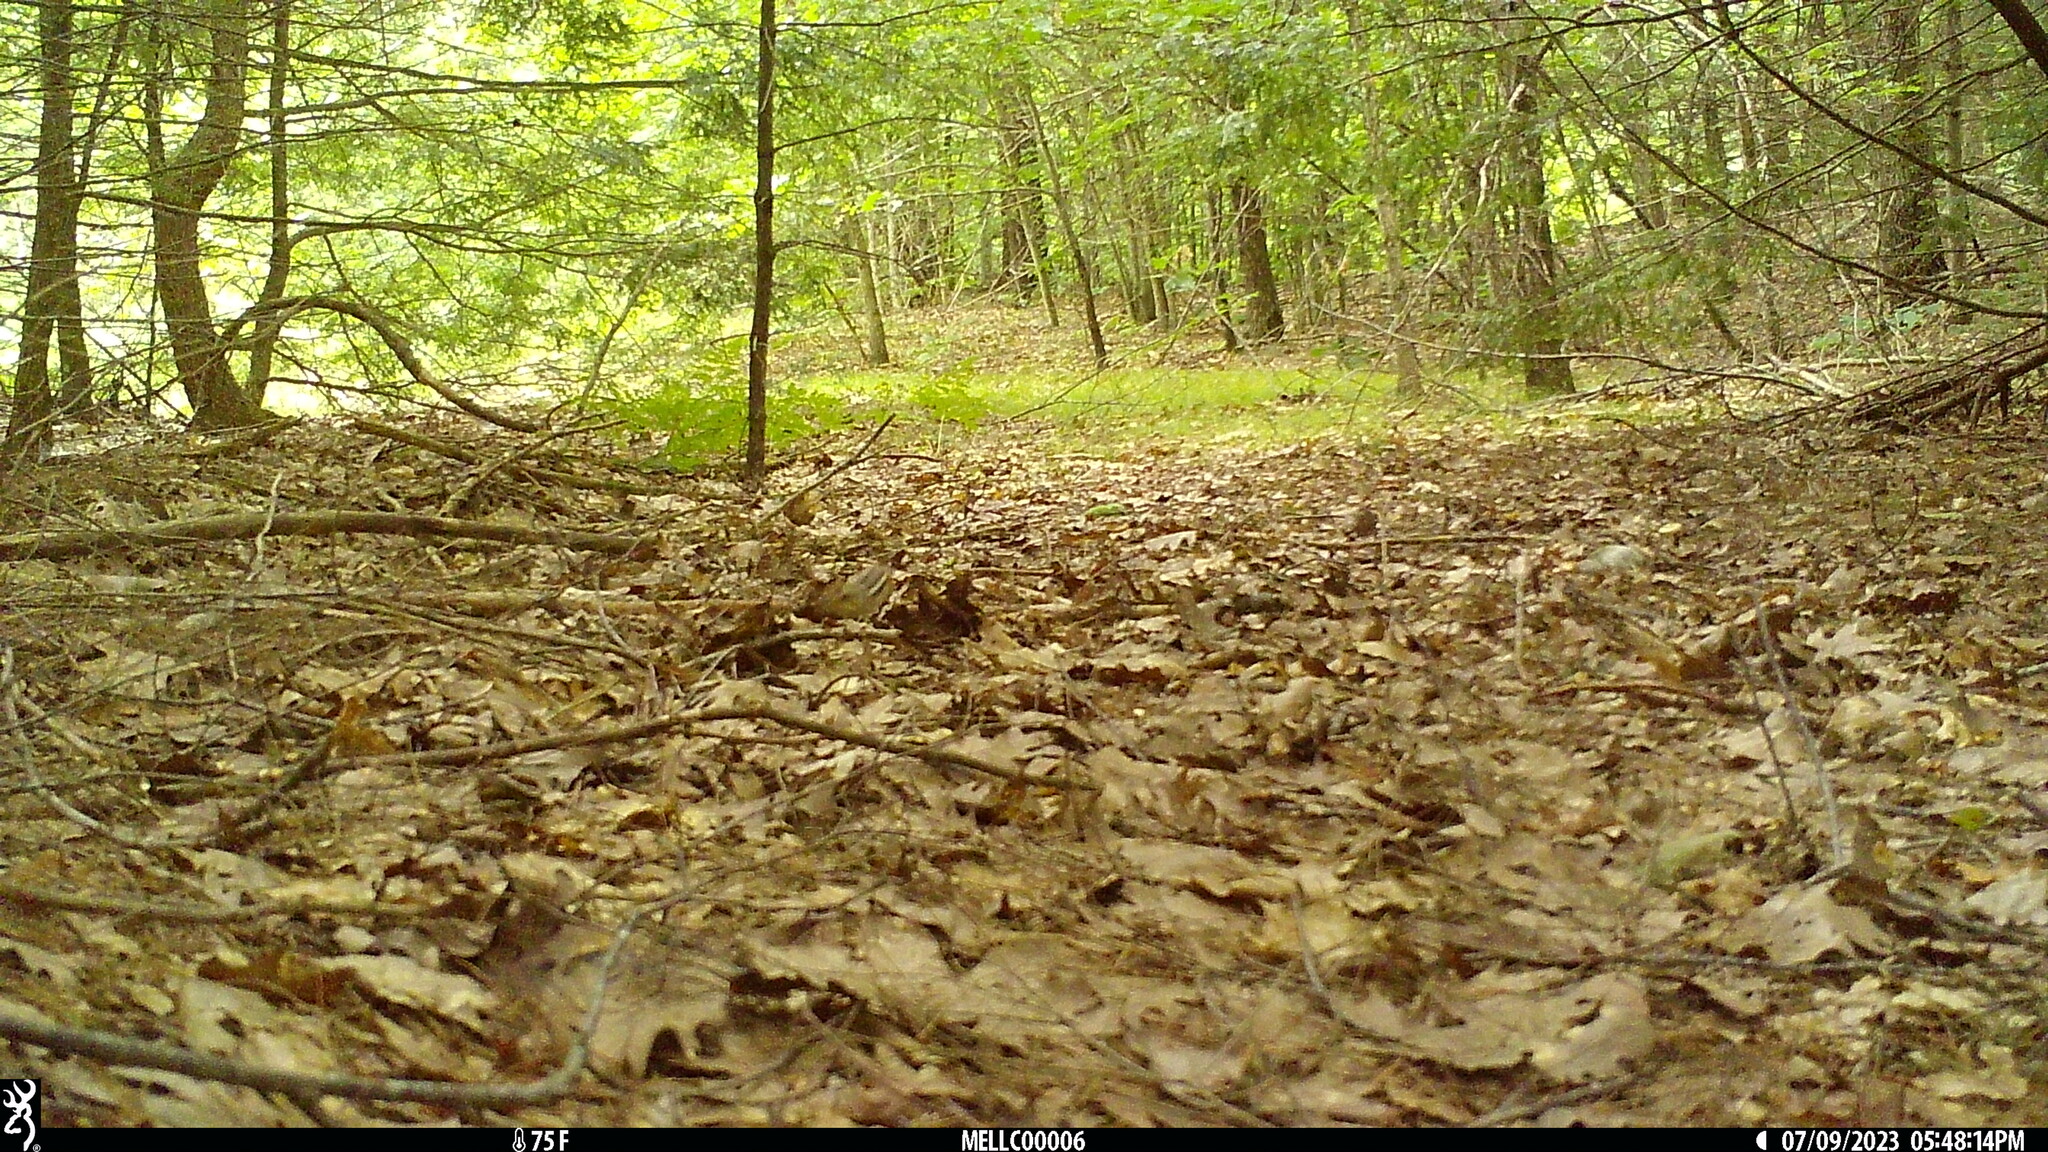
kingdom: Animalia
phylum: Chordata
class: Mammalia
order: Rodentia
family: Sciuridae
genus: Tamias
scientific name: Tamias striatus
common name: Eastern chipmunk
